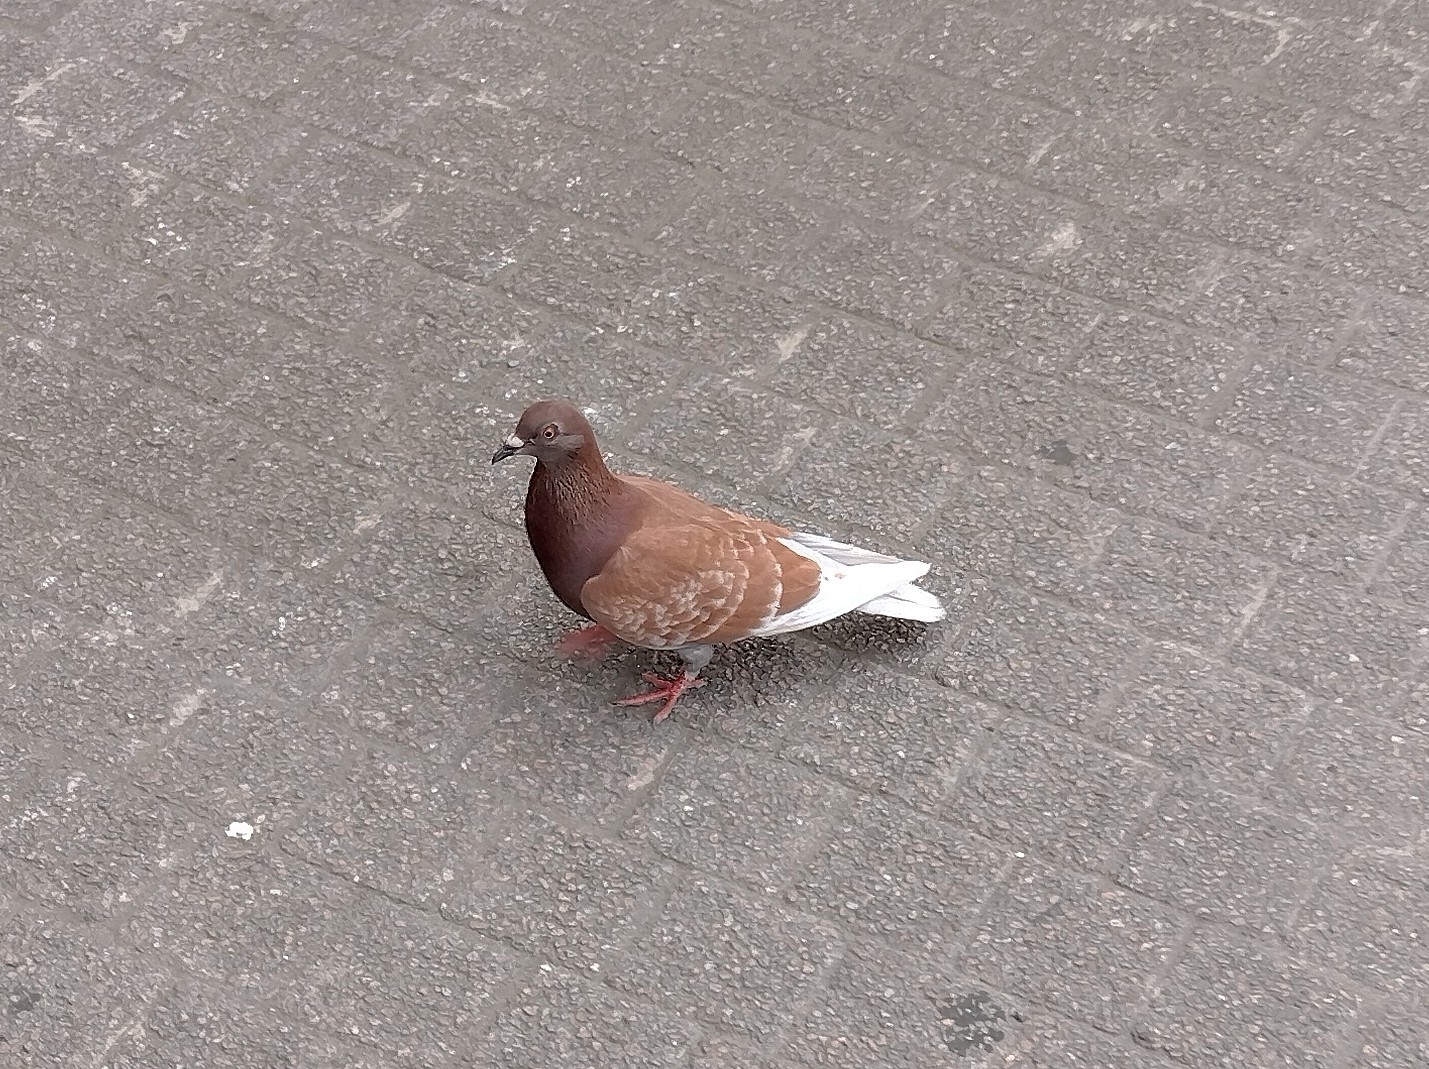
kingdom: Animalia
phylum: Chordata
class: Aves
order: Columbiformes
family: Columbidae
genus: Columba
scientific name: Columba livia
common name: Rock pigeon
